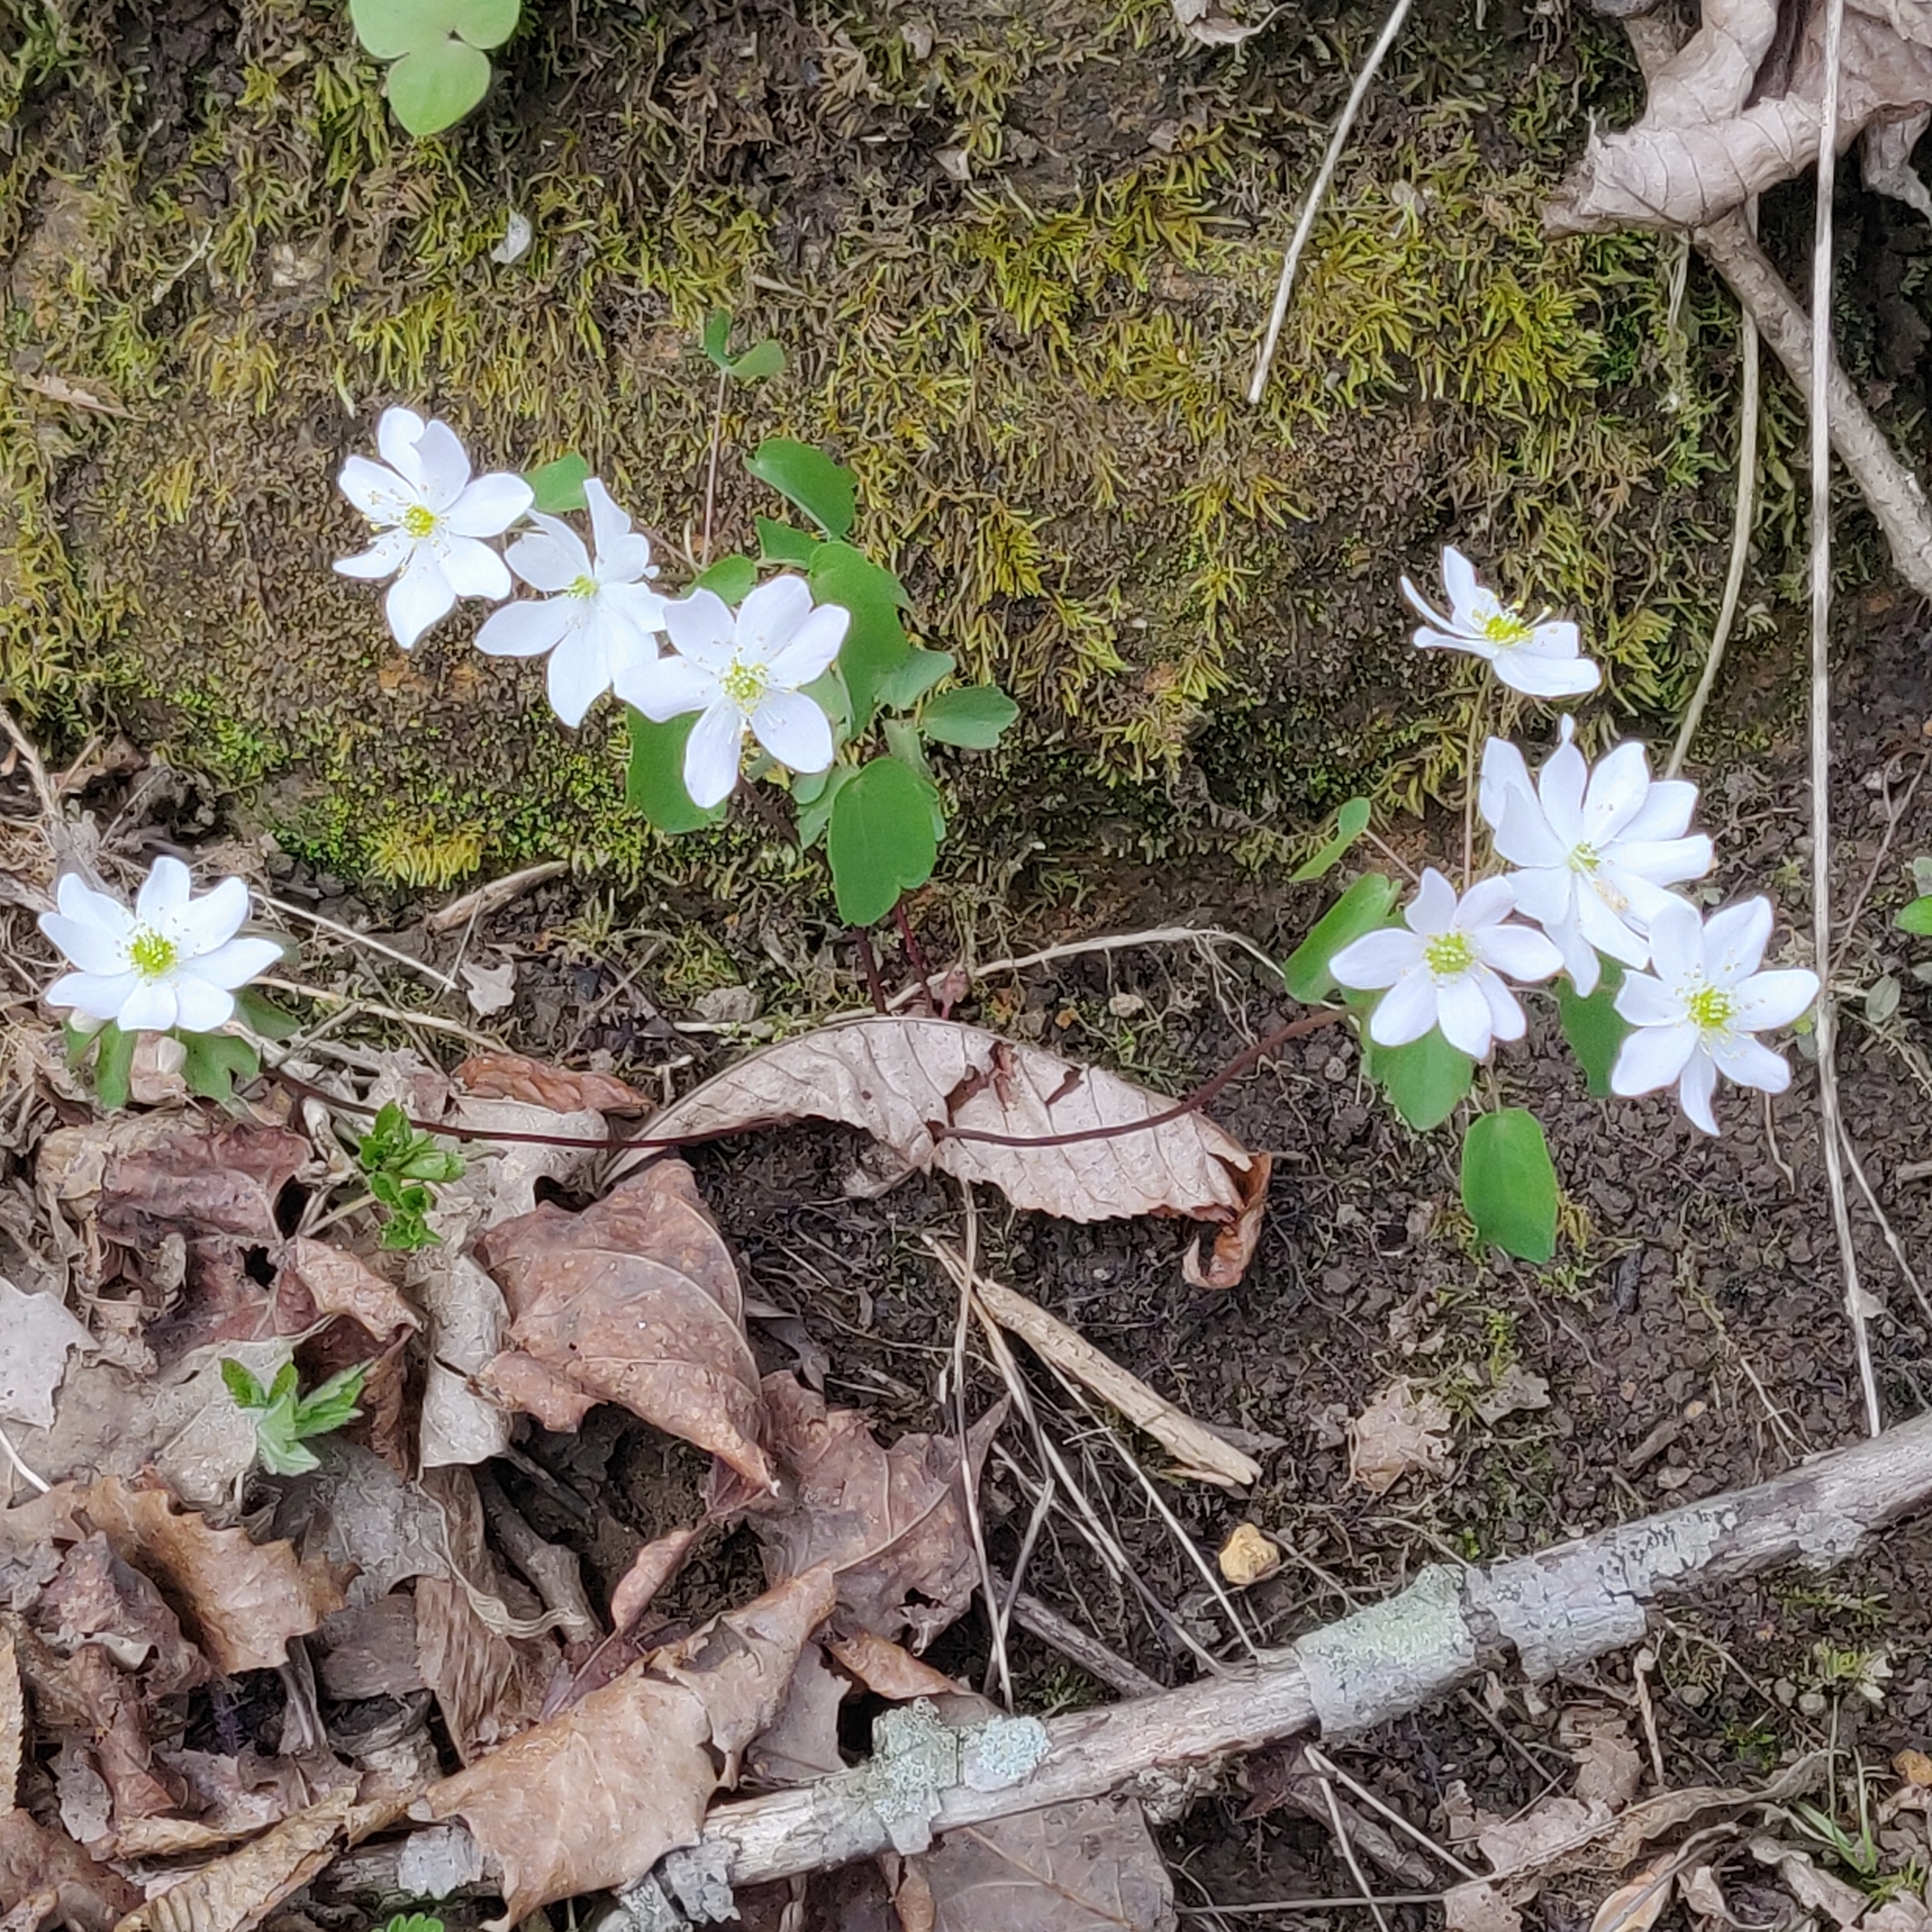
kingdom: Plantae
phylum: Tracheophyta
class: Magnoliopsida
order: Ranunculales
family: Ranunculaceae
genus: Thalictrum
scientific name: Thalictrum thalictroides
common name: Rue-anemone
